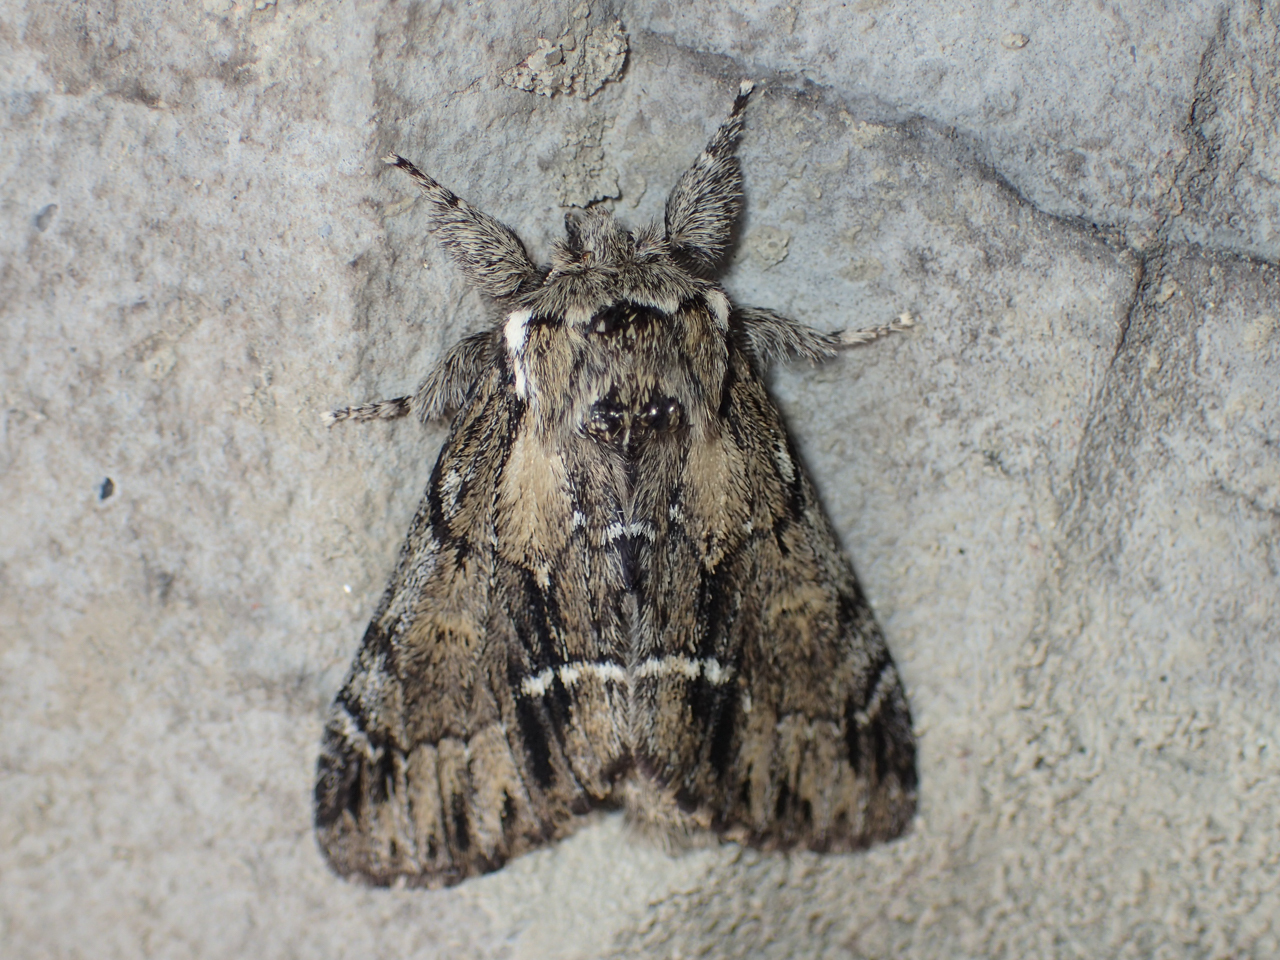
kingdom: Animalia
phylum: Arthropoda
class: Insecta
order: Lepidoptera
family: Notodontidae
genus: Paraeschra
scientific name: Paraeschra georgica
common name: Georgian prominent
